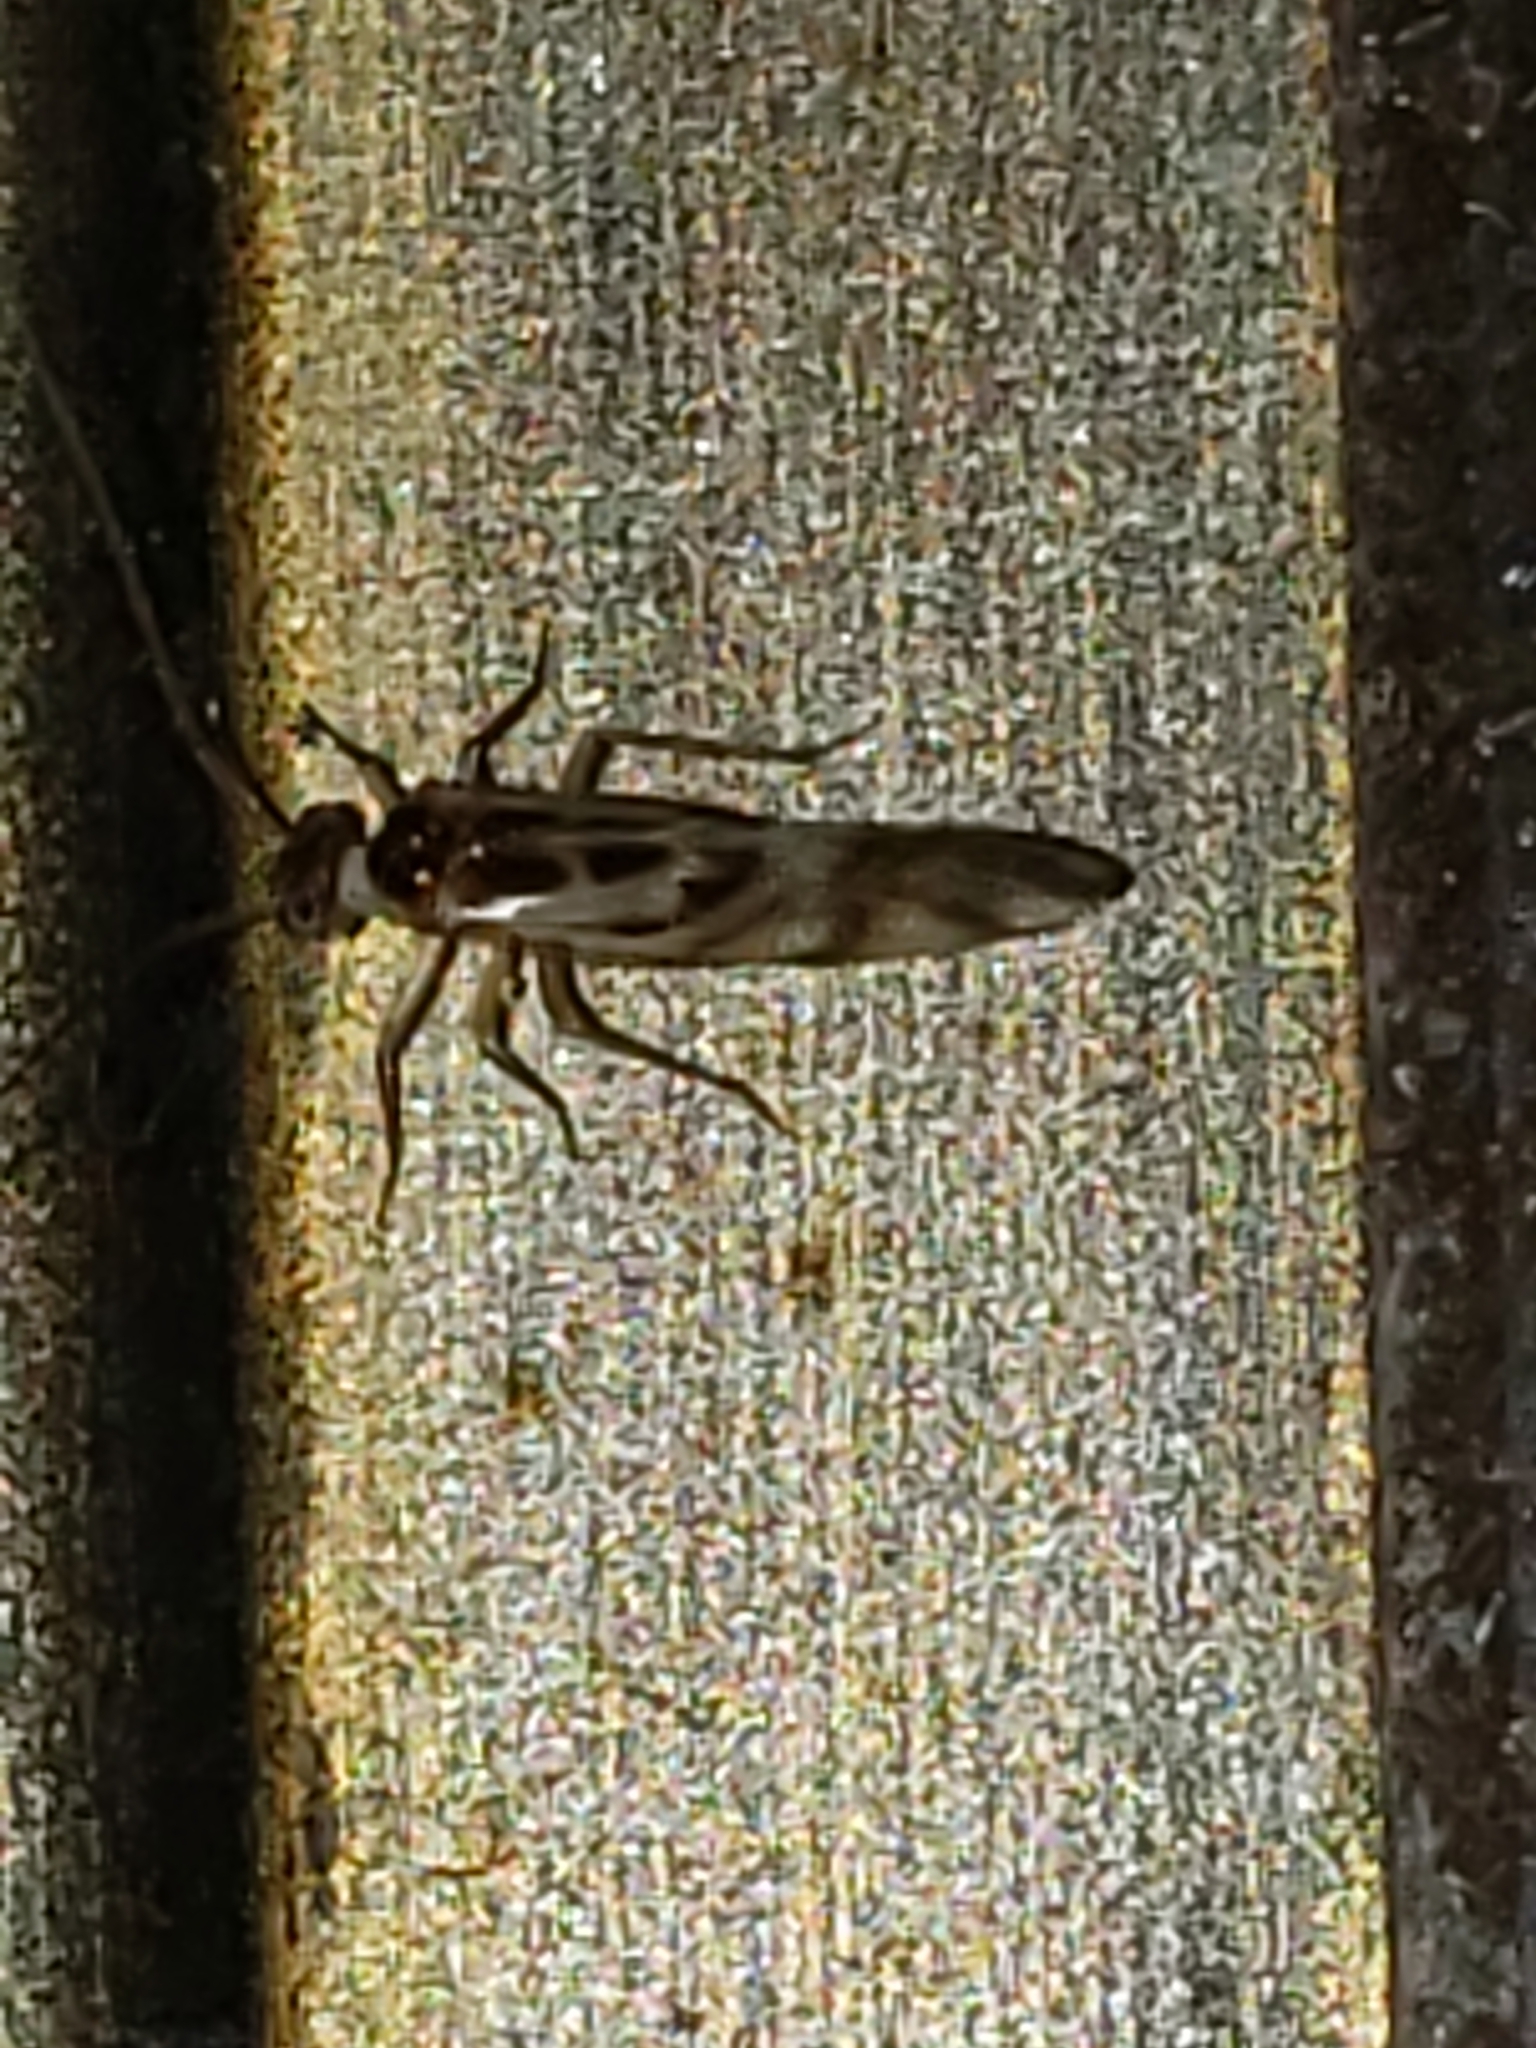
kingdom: Animalia
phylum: Arthropoda
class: Insecta
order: Psocodea
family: Stenopsocidae
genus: Graphopsocus
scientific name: Graphopsocus cruciatus
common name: Lizard bark louse
